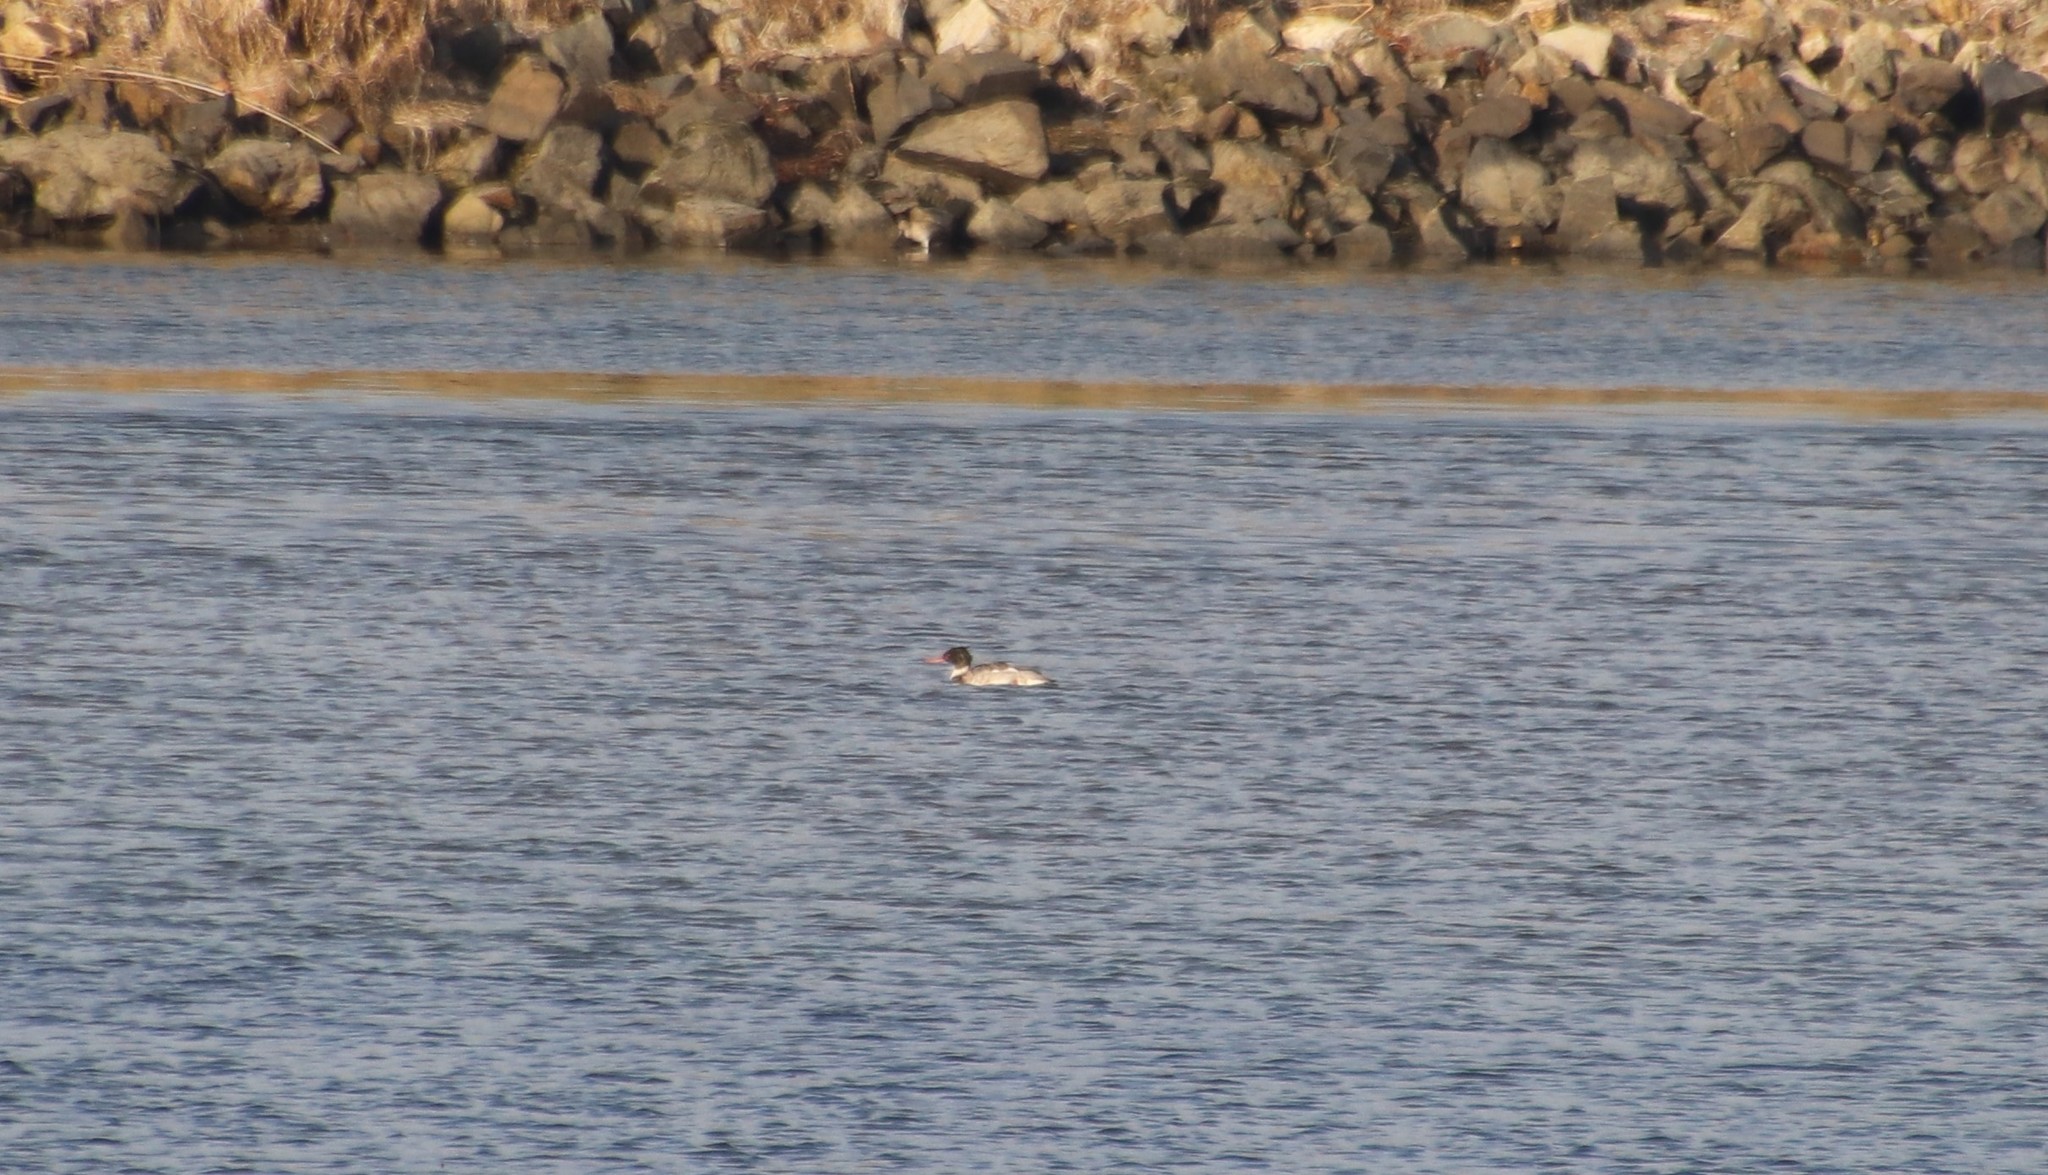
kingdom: Animalia
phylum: Chordata
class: Aves
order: Anseriformes
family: Anatidae
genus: Mergus
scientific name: Mergus serrator
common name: Red-breasted merganser
